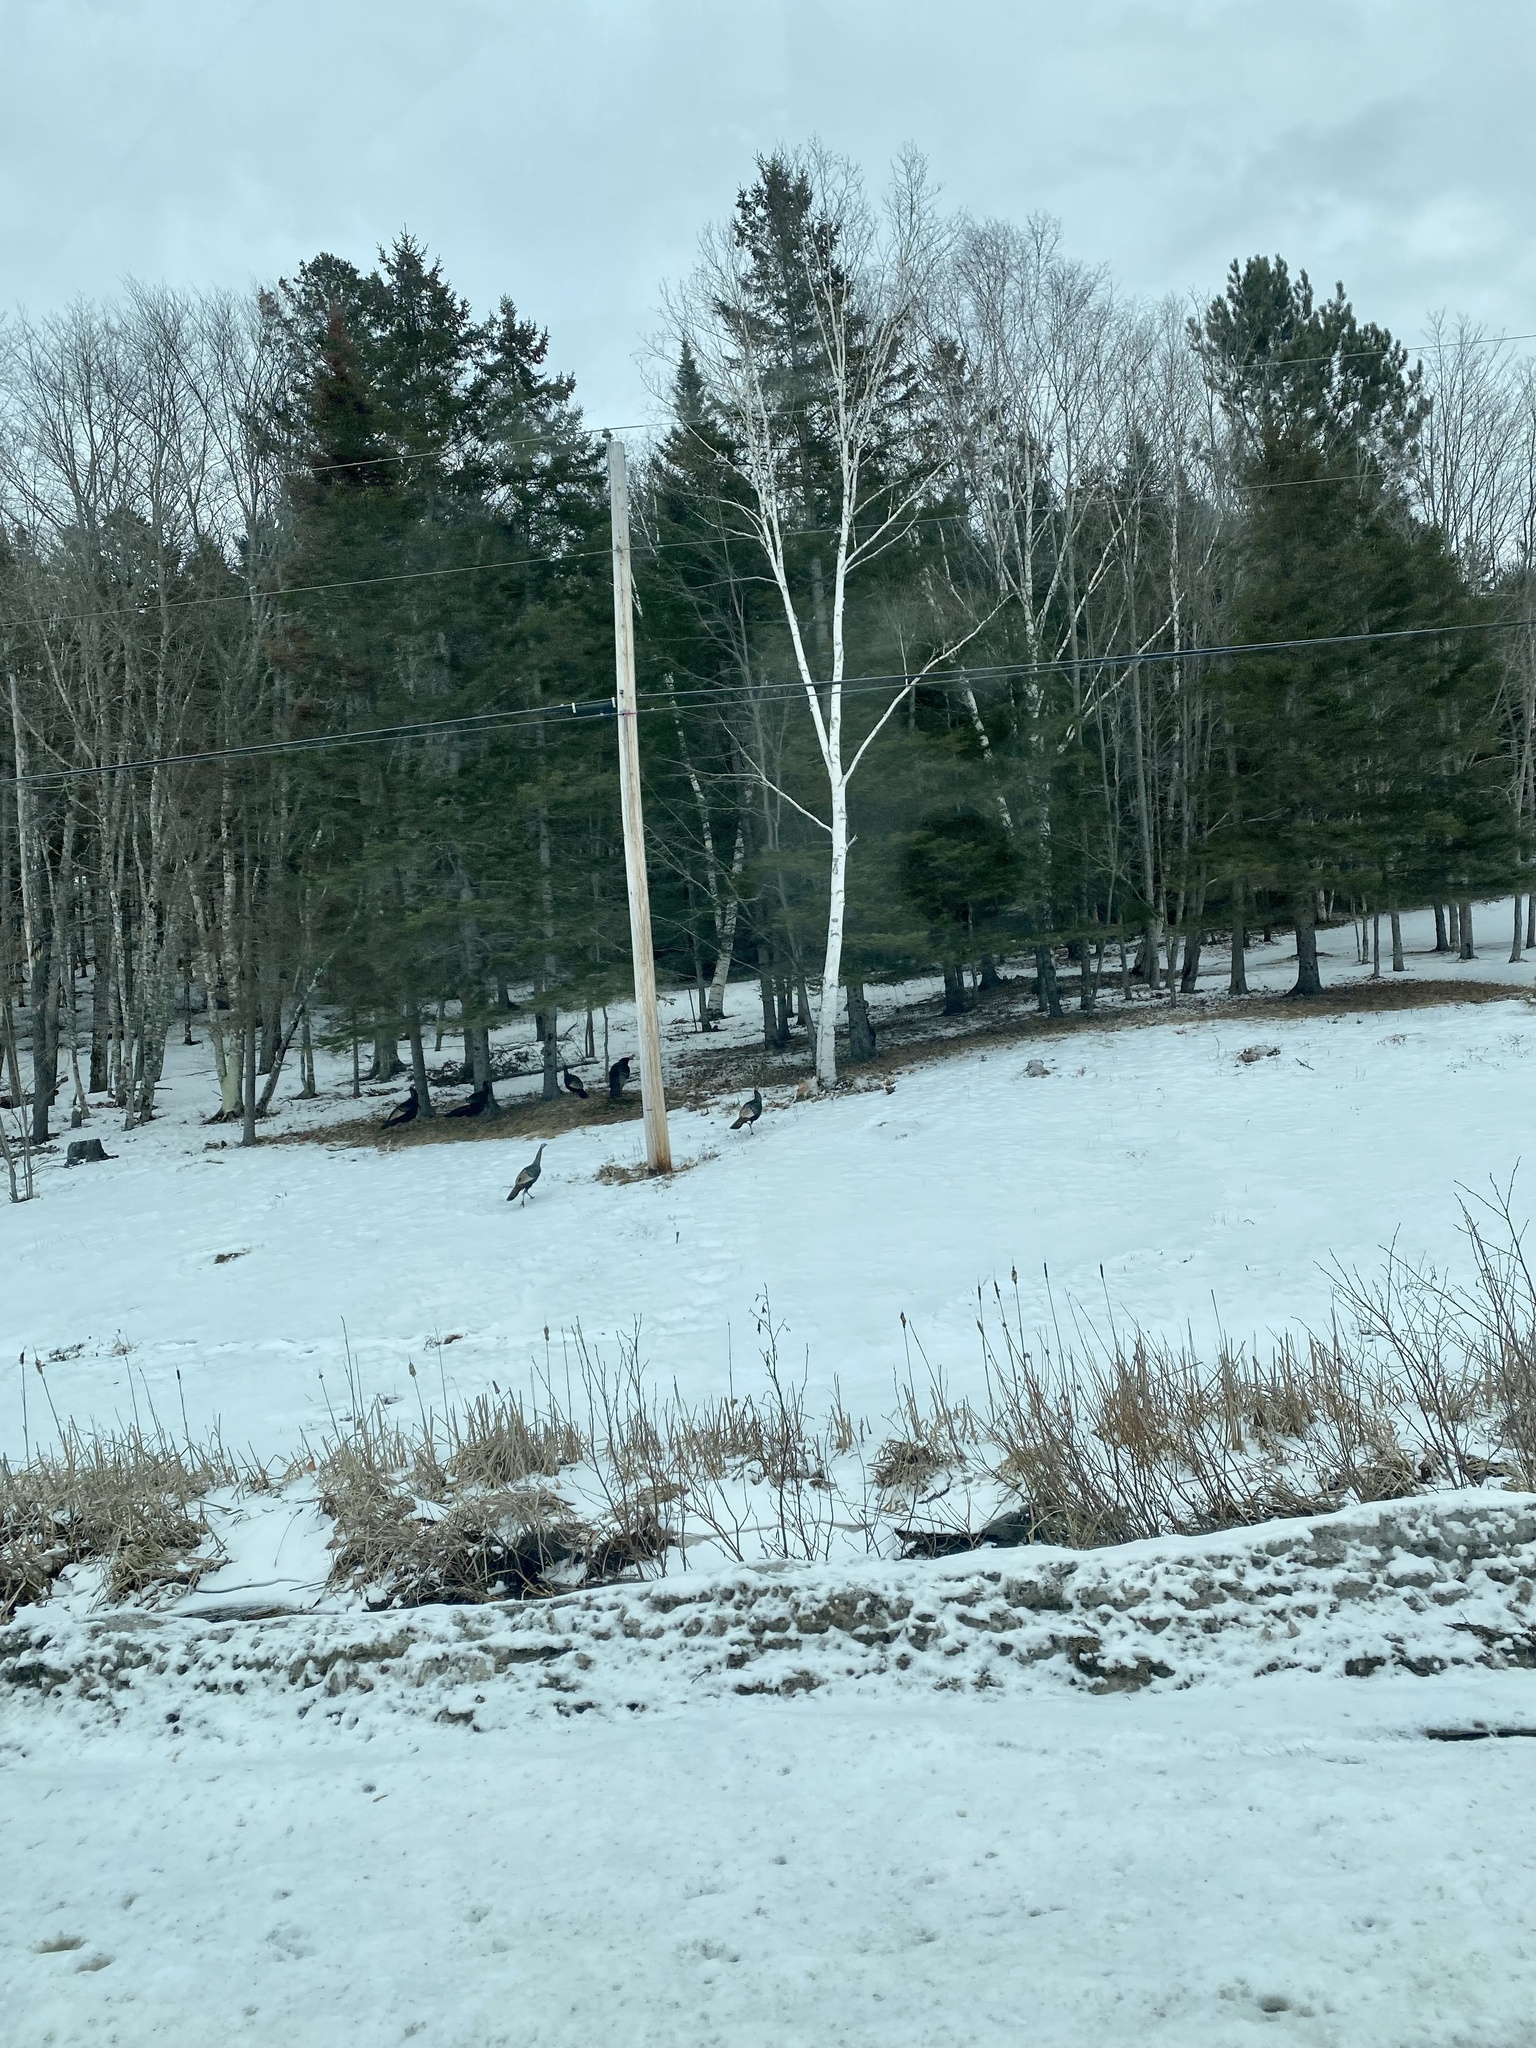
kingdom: Animalia
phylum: Chordata
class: Aves
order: Galliformes
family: Phasianidae
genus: Meleagris
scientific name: Meleagris gallopavo
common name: Wild turkey
